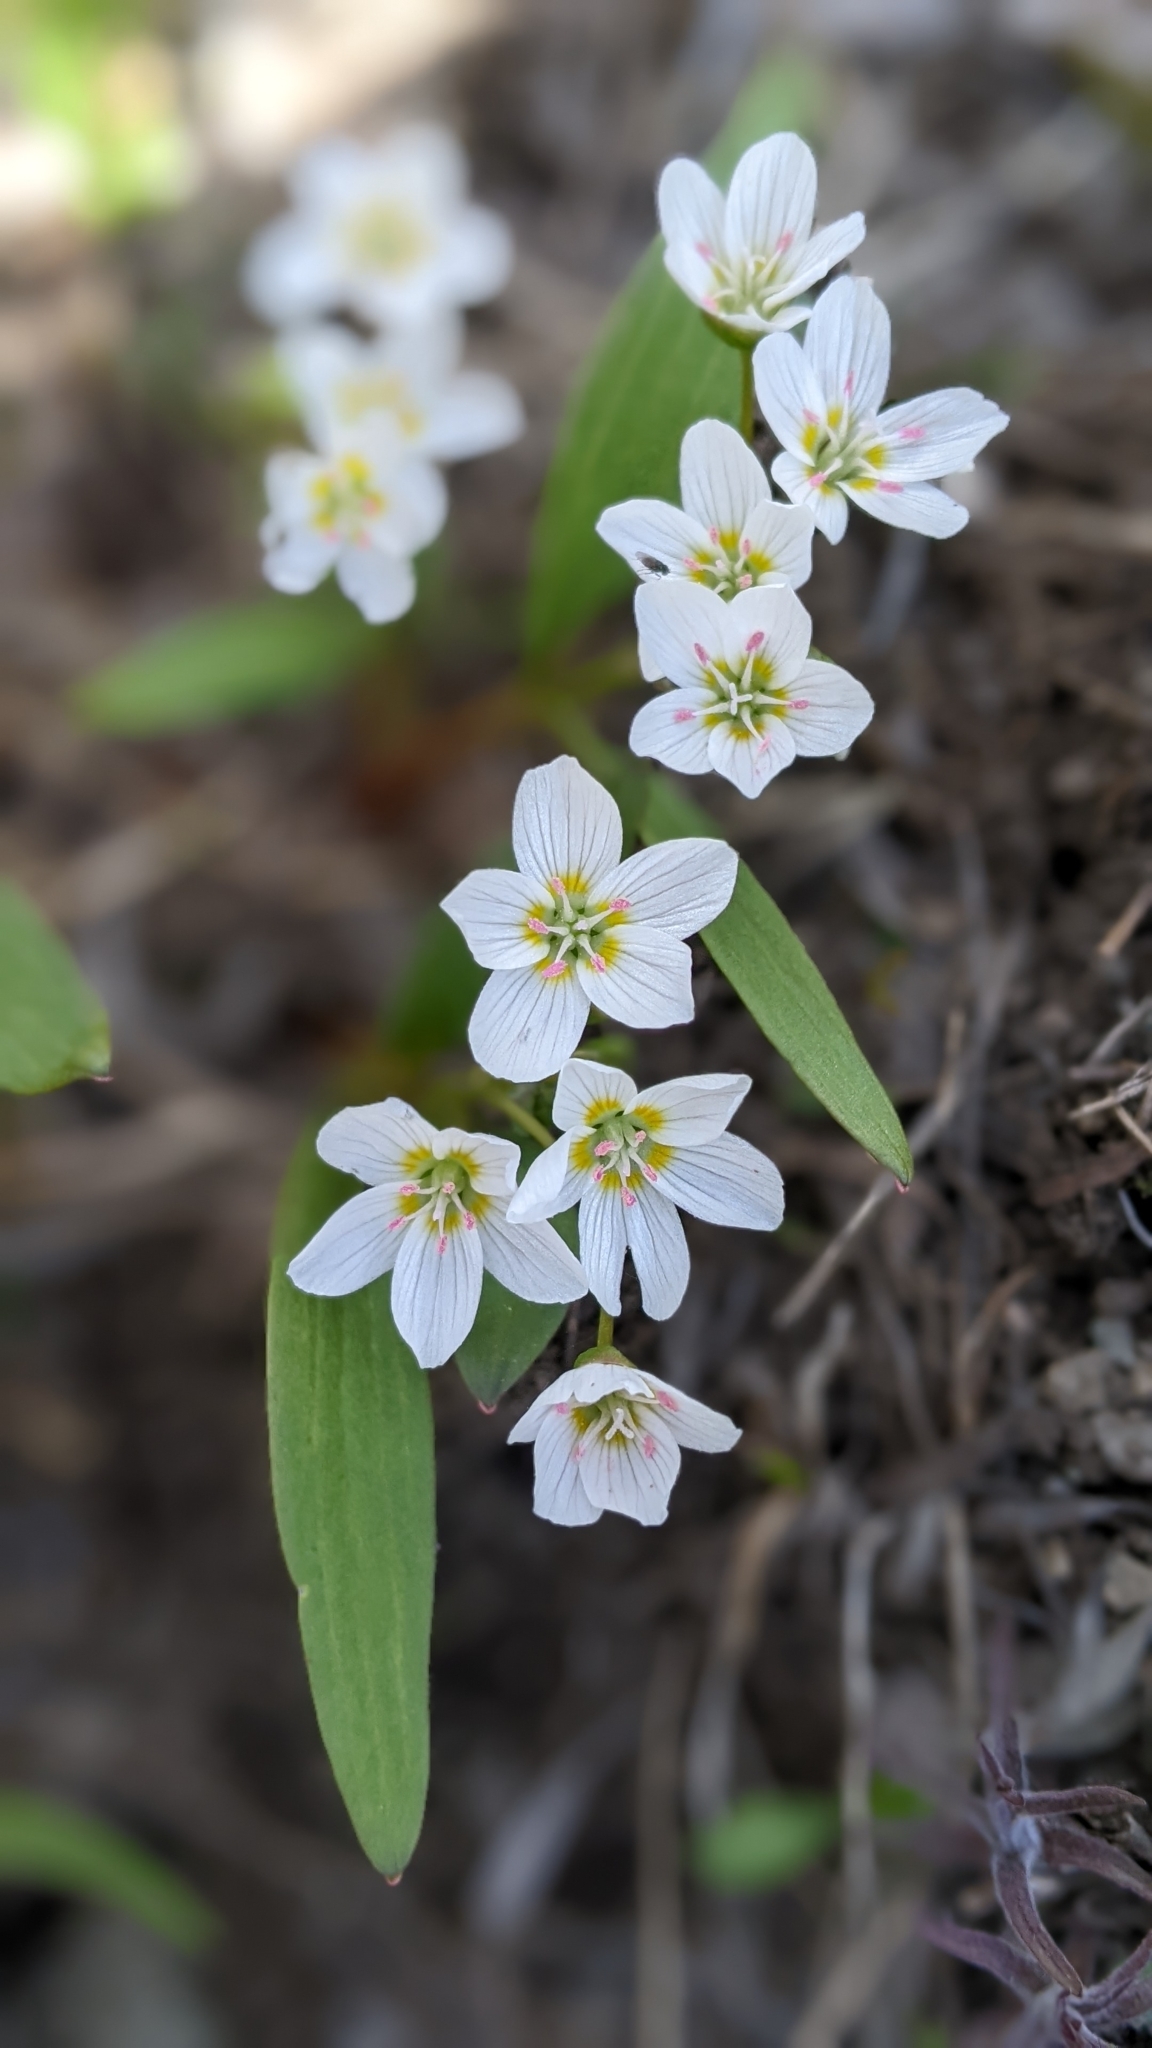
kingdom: Plantae
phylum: Tracheophyta
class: Magnoliopsida
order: Caryophyllales
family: Montiaceae
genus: Claytonia
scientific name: Claytonia lanceolata
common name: Western spring-beauty
